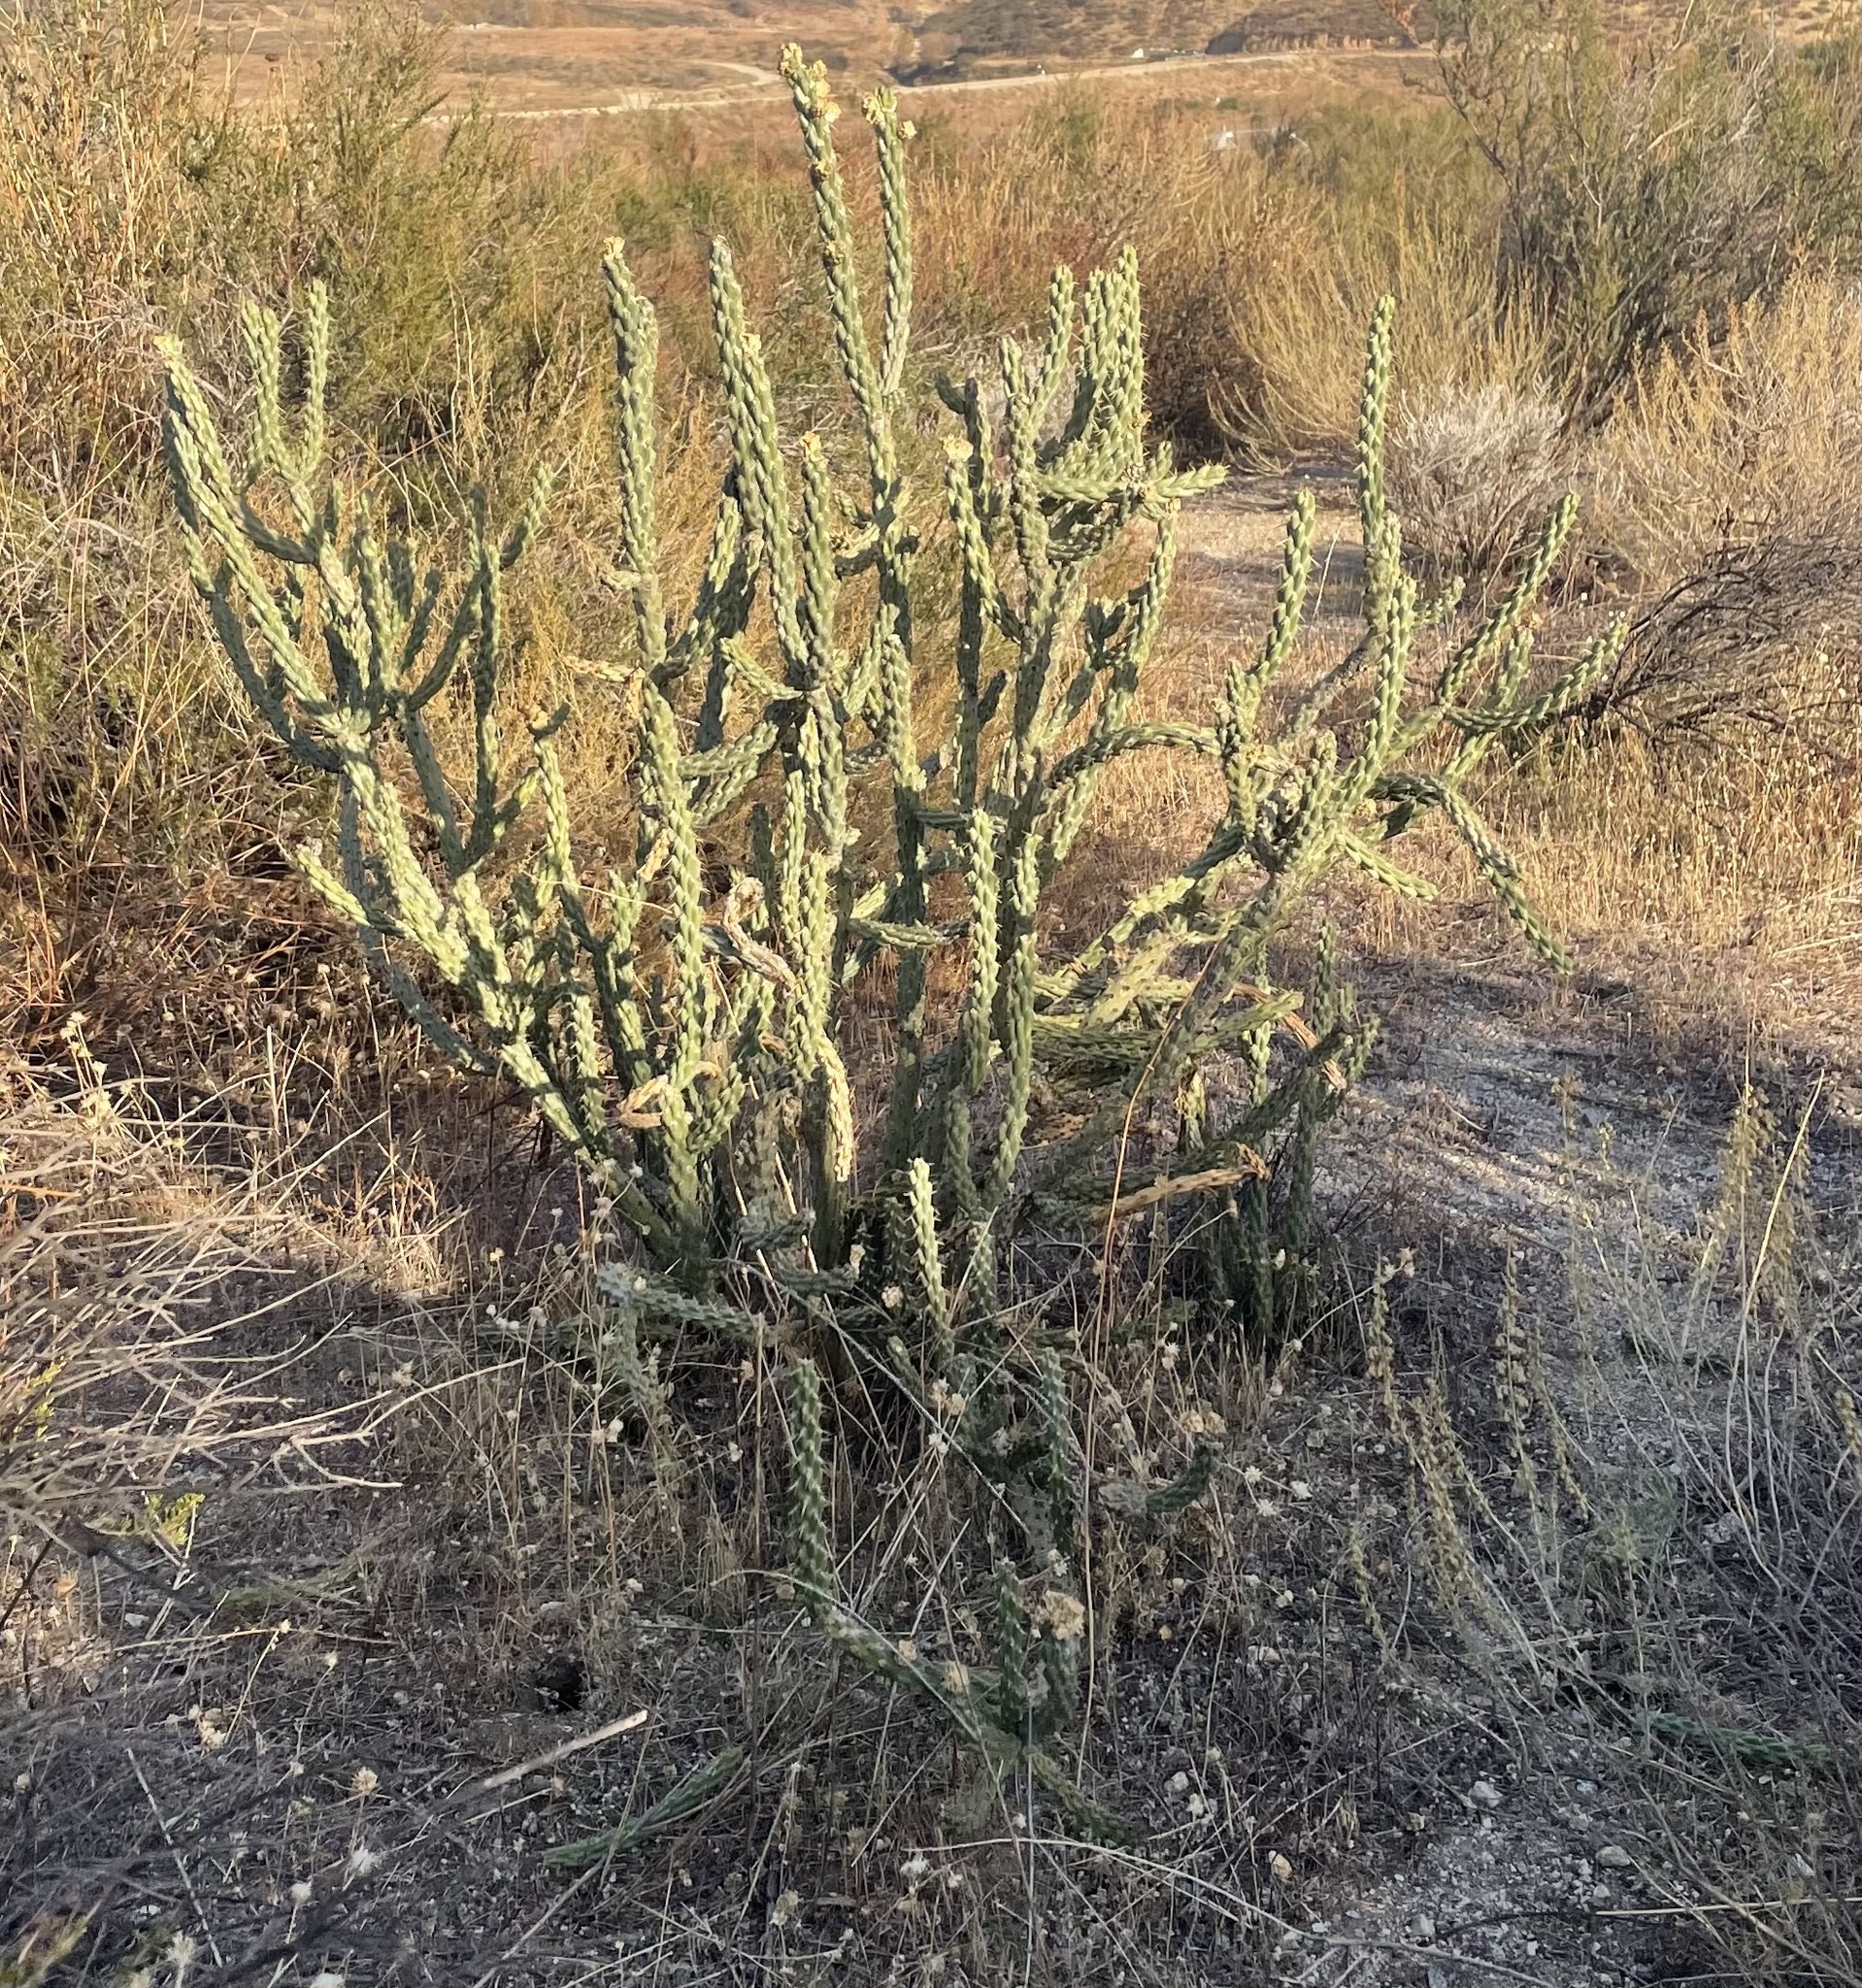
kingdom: Plantae
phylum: Tracheophyta
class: Magnoliopsida
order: Caryophyllales
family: Cactaceae
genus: Cylindropuntia
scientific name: Cylindropuntia bernardina
